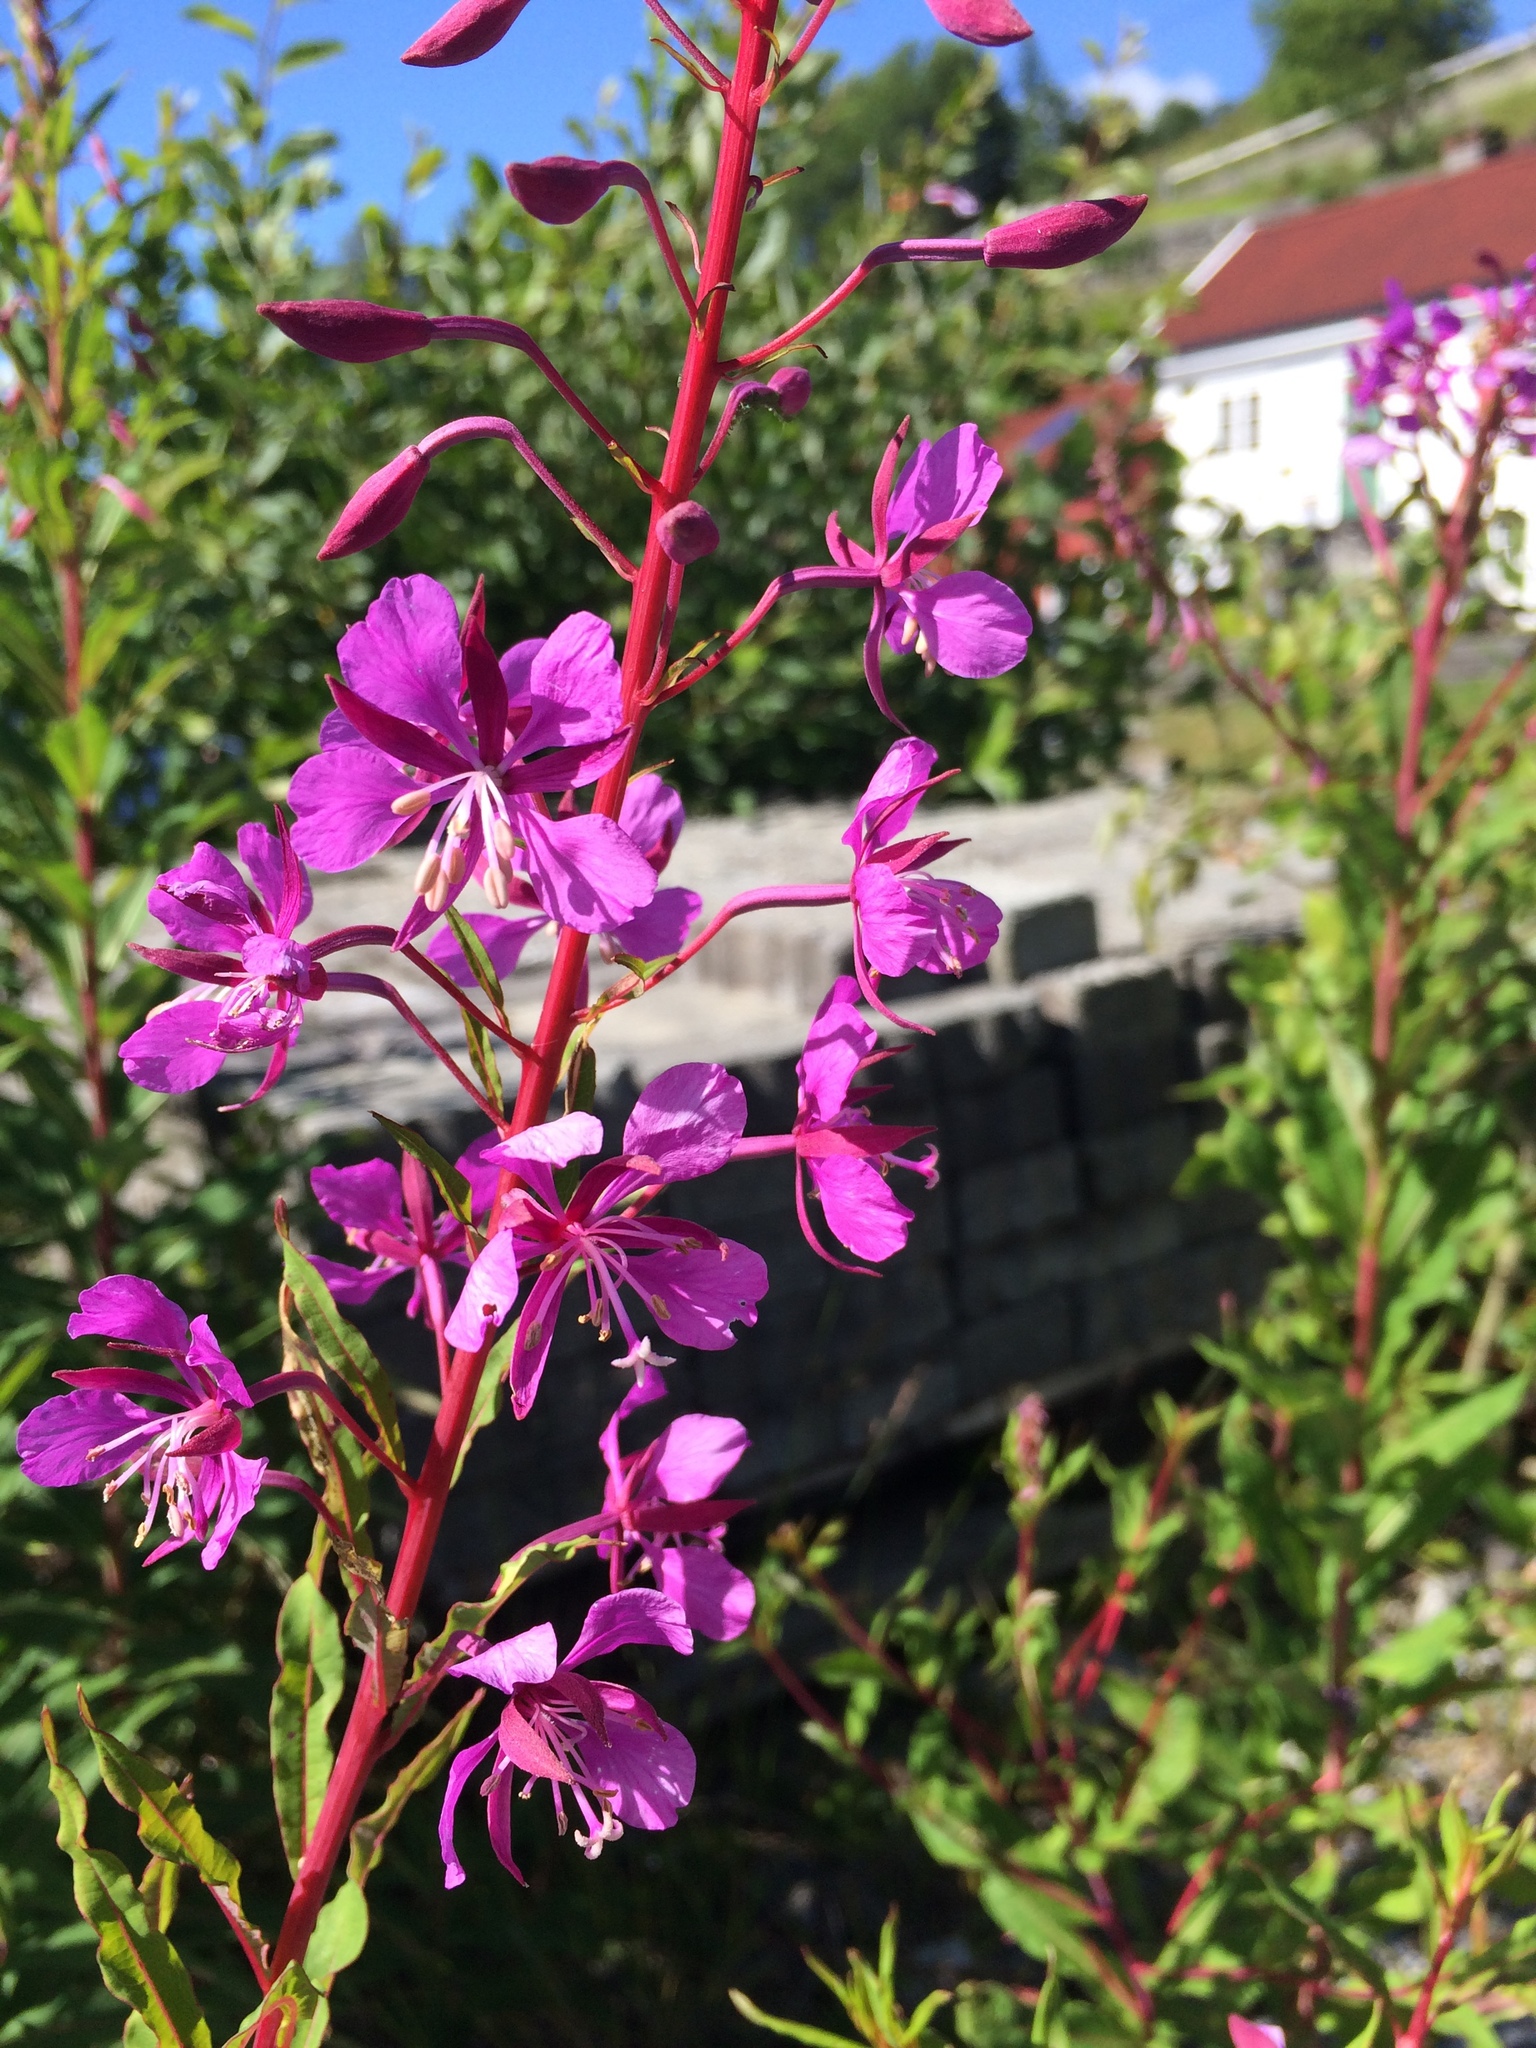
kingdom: Plantae
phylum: Tracheophyta
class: Magnoliopsida
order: Myrtales
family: Onagraceae
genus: Chamaenerion
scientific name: Chamaenerion angustifolium
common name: Fireweed
